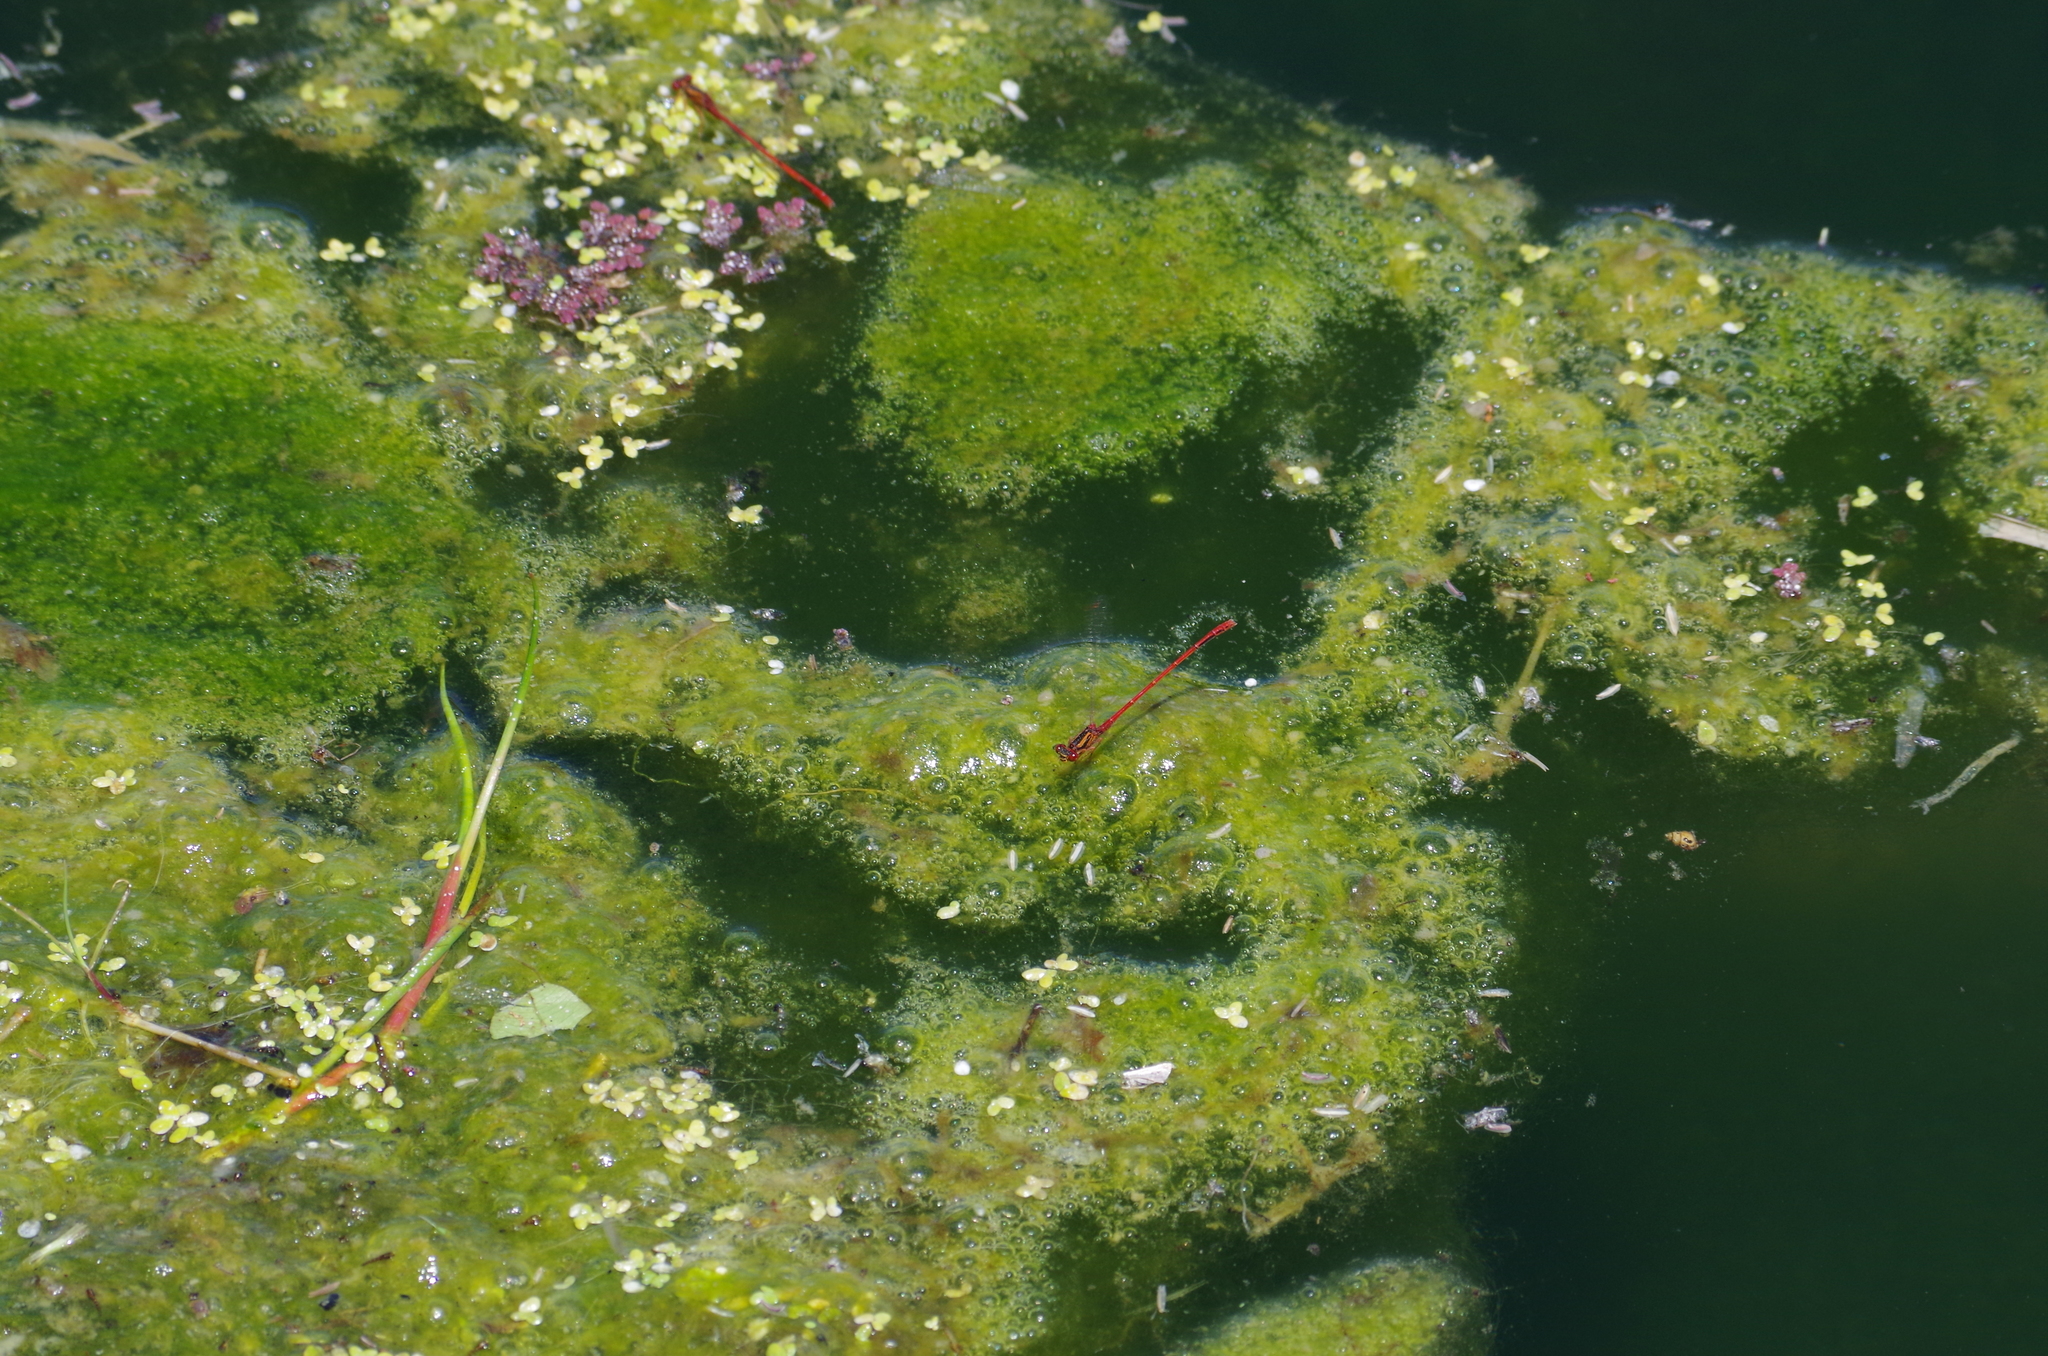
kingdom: Animalia
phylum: Arthropoda
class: Insecta
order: Odonata
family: Coenagrionidae
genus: Xanthocnemis
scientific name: Xanthocnemis zealandica
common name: Common redcoat damselfly
